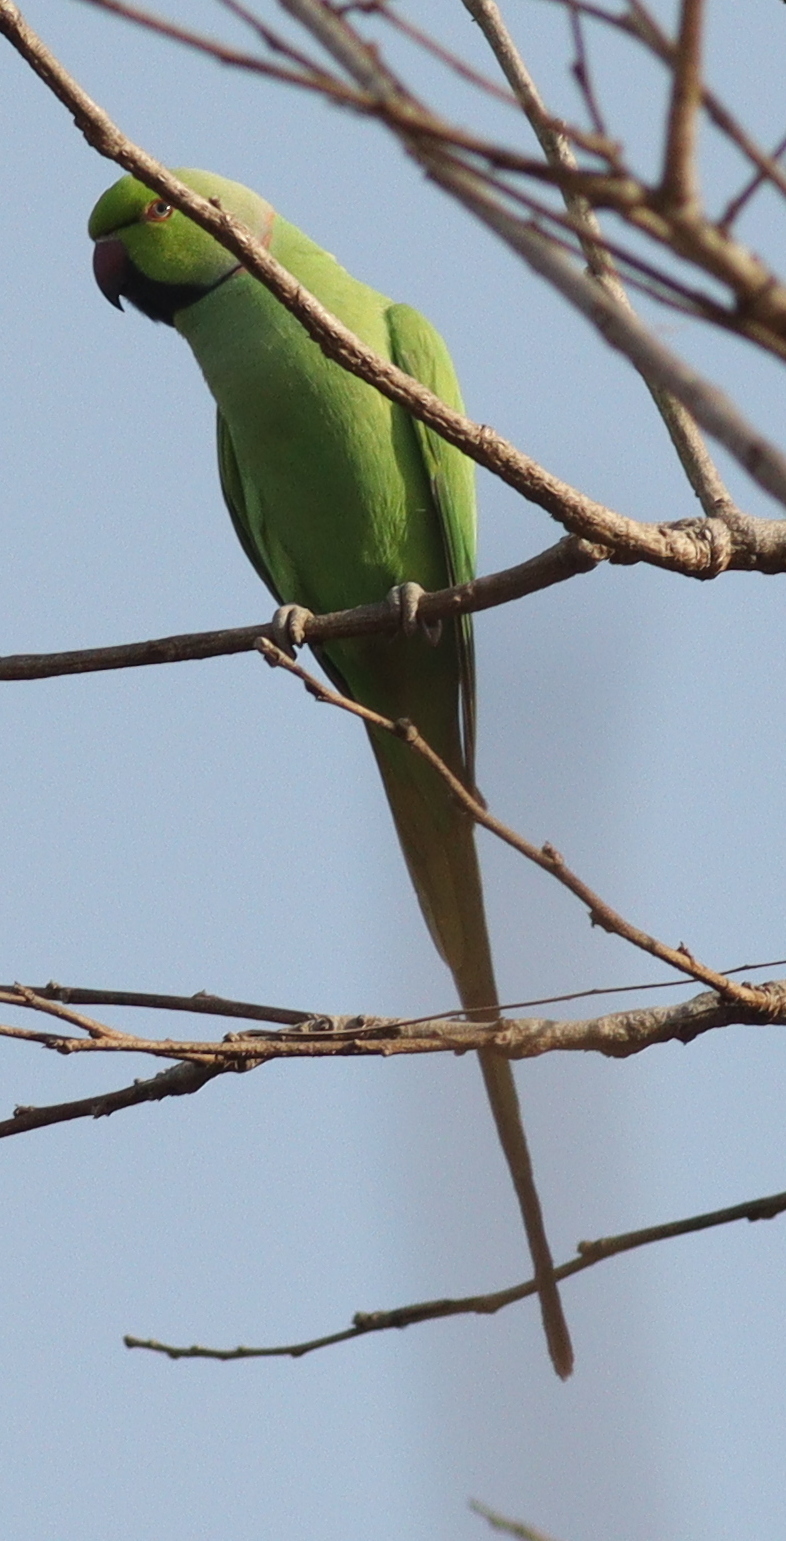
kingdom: Animalia
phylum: Chordata
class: Aves
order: Psittaciformes
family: Psittacidae
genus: Psittacula
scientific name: Psittacula krameri
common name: Rose-ringed parakeet
